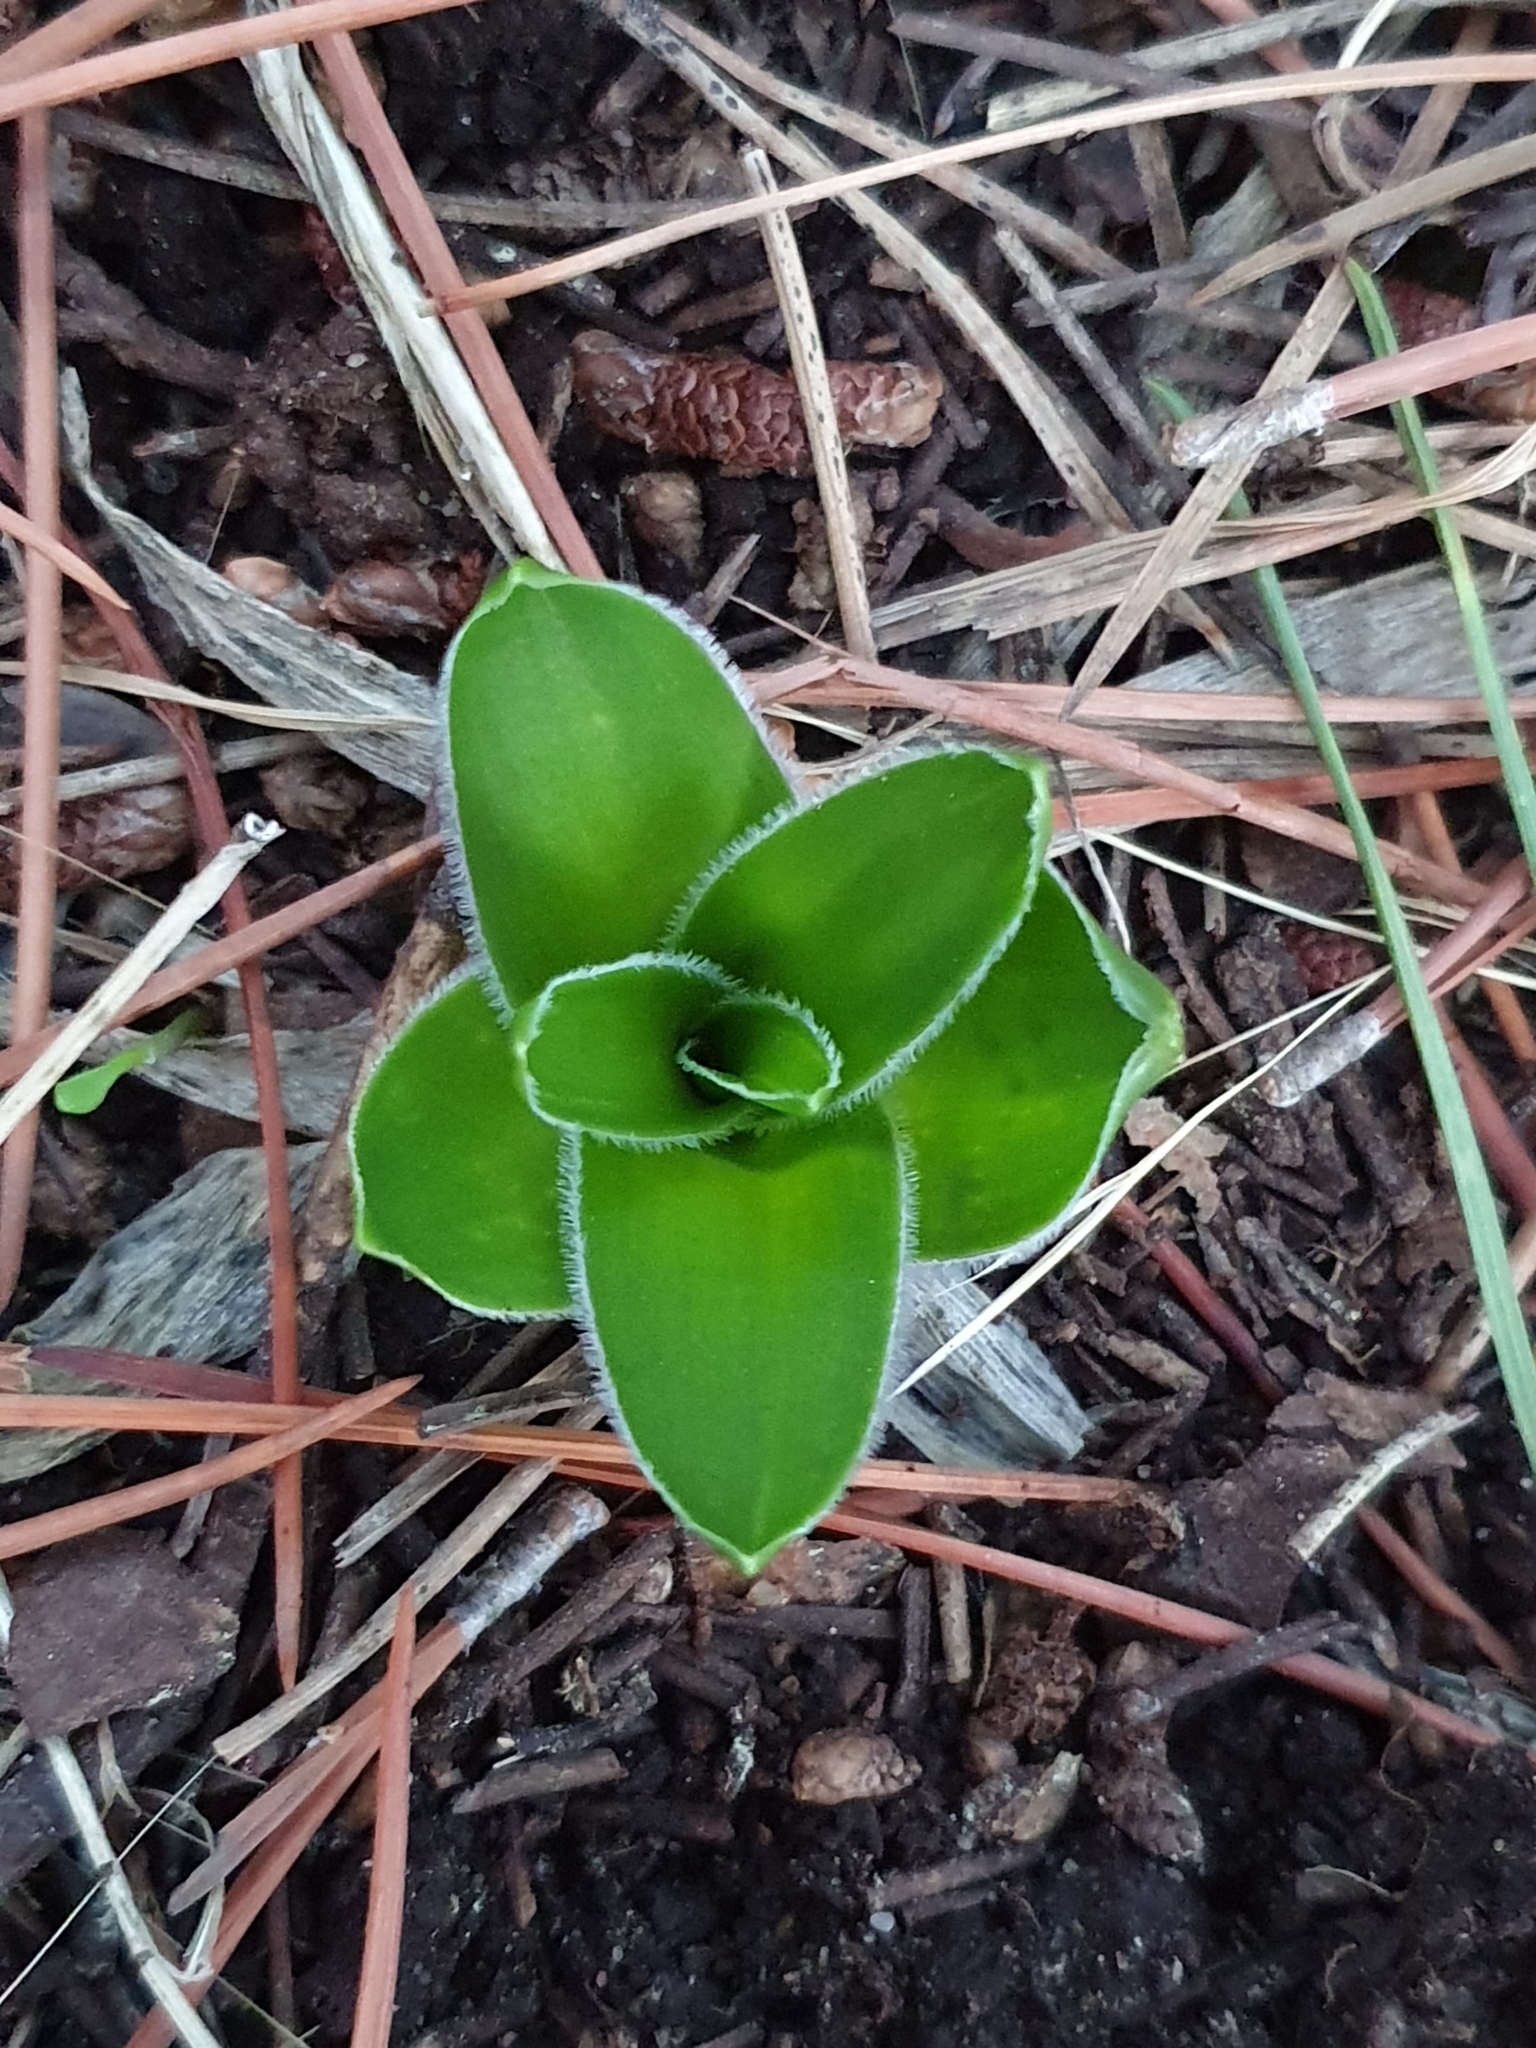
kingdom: Plantae
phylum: Tracheophyta
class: Liliopsida
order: Asparagales
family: Asparagaceae
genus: Scilla
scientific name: Scilla peruviana
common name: Portuguese squill
